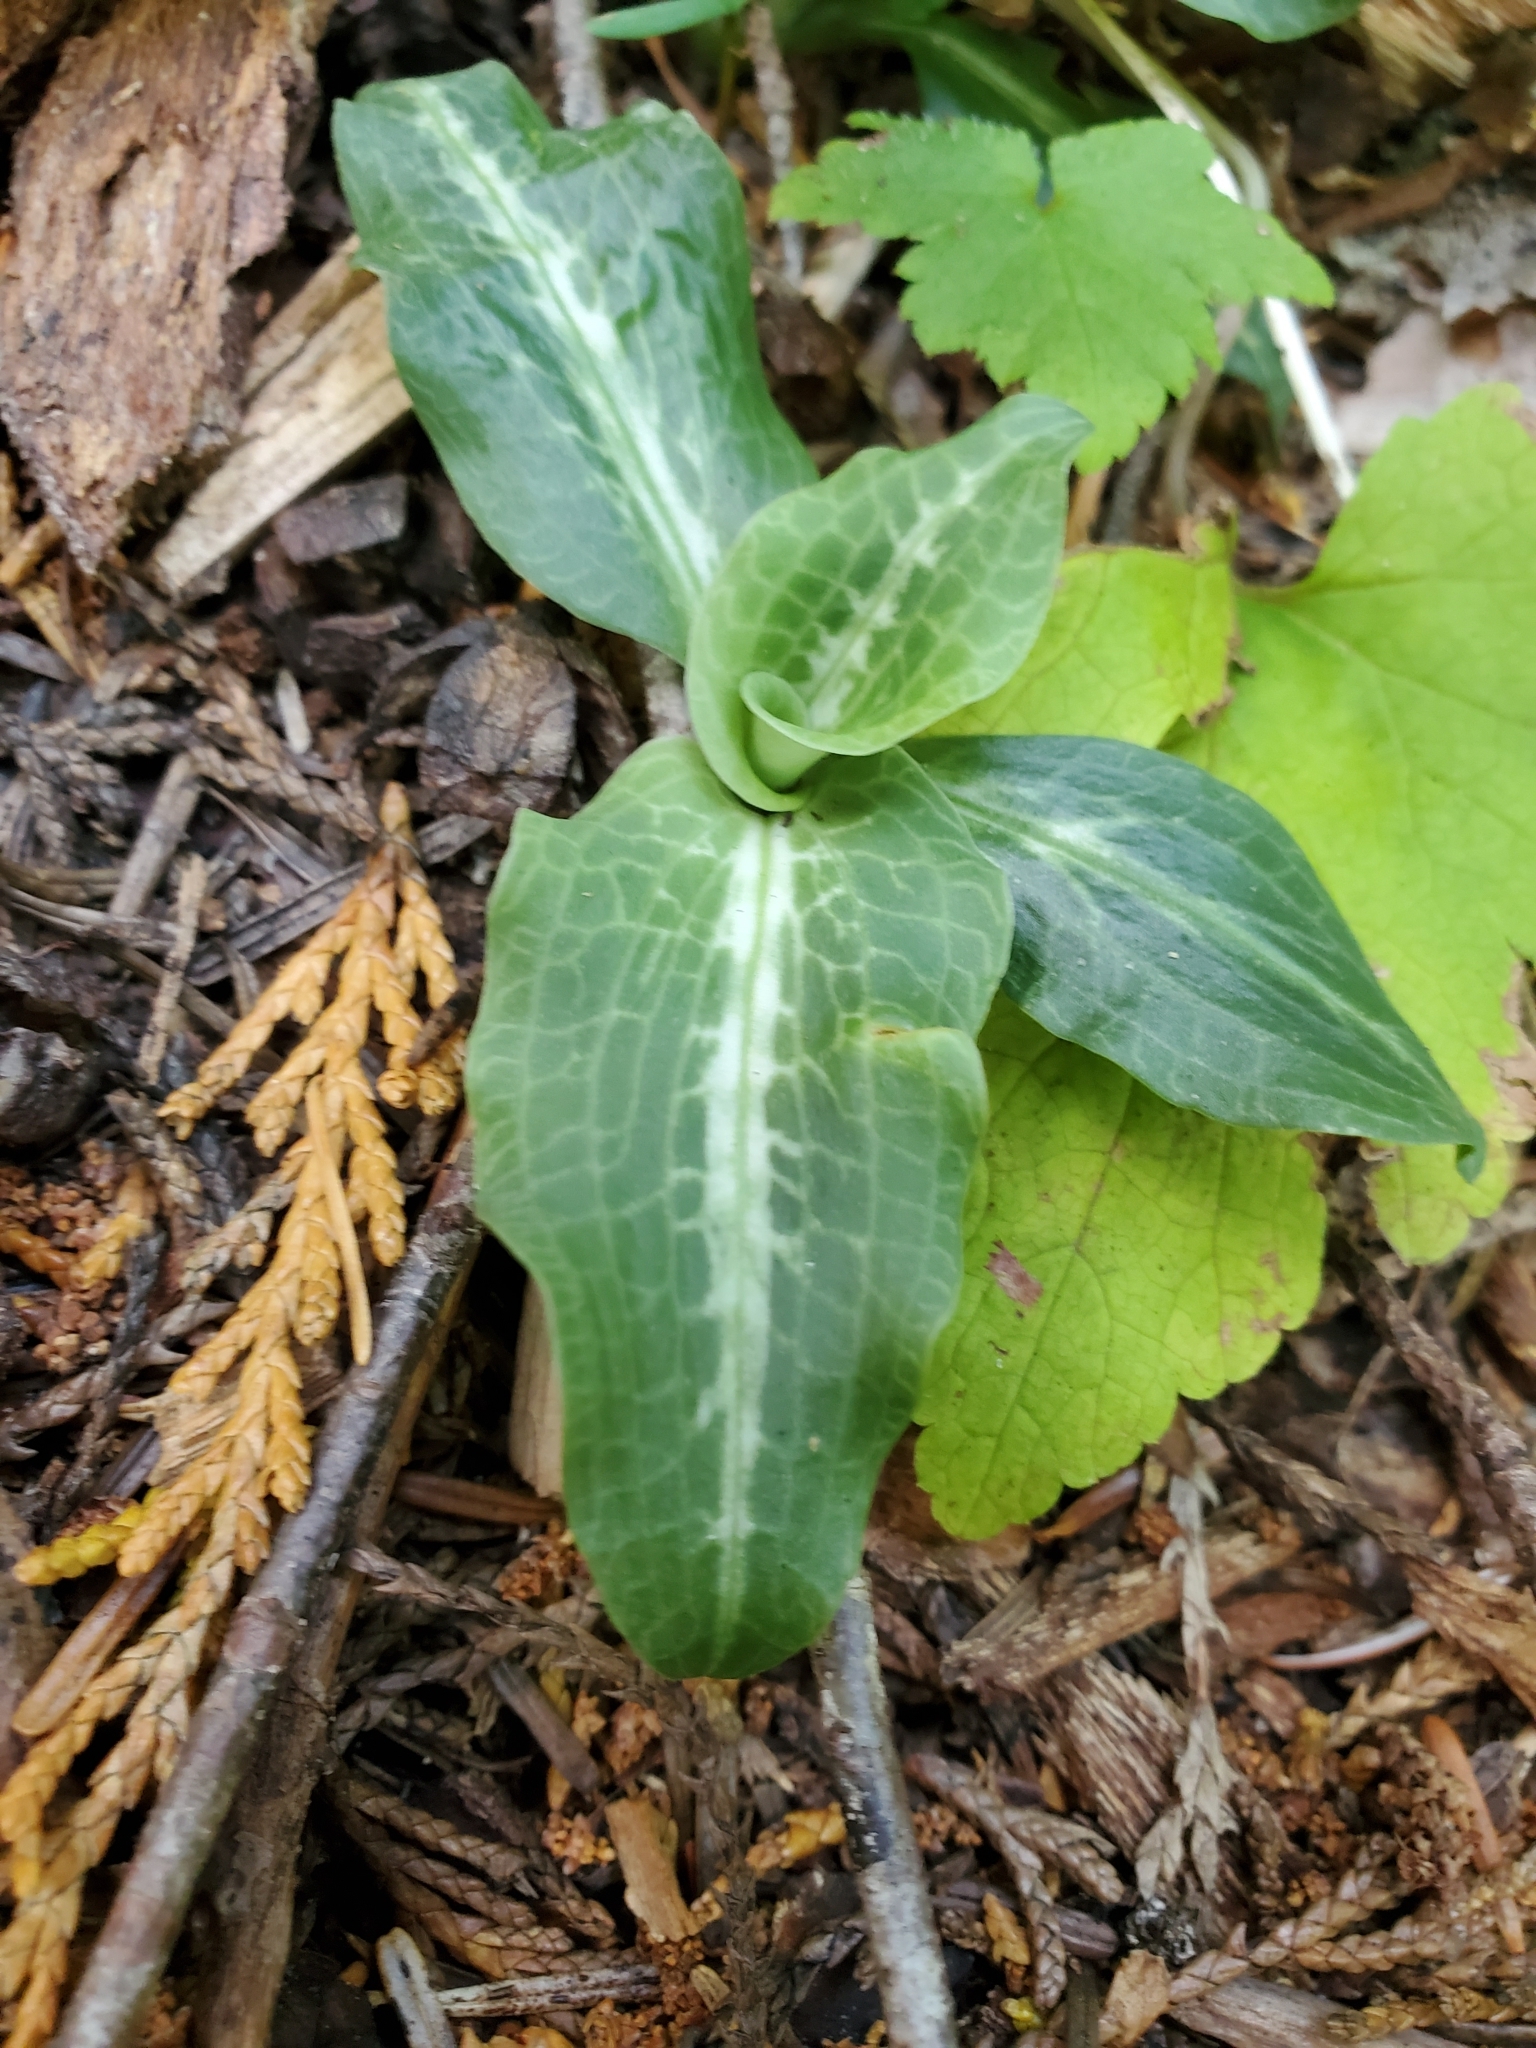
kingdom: Plantae
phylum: Tracheophyta
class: Liliopsida
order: Asparagales
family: Orchidaceae
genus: Goodyera
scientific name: Goodyera oblongifolia
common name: Giant rattlesnake-plantain
